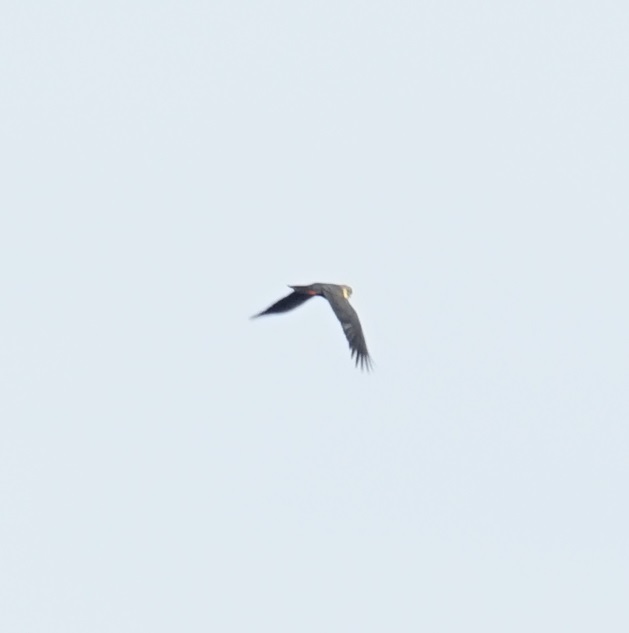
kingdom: Animalia
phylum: Chordata
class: Aves
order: Psittaciformes
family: Psittacidae
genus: Calyptorhynchus
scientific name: Calyptorhynchus lathami
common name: Glossy black cockatoo
